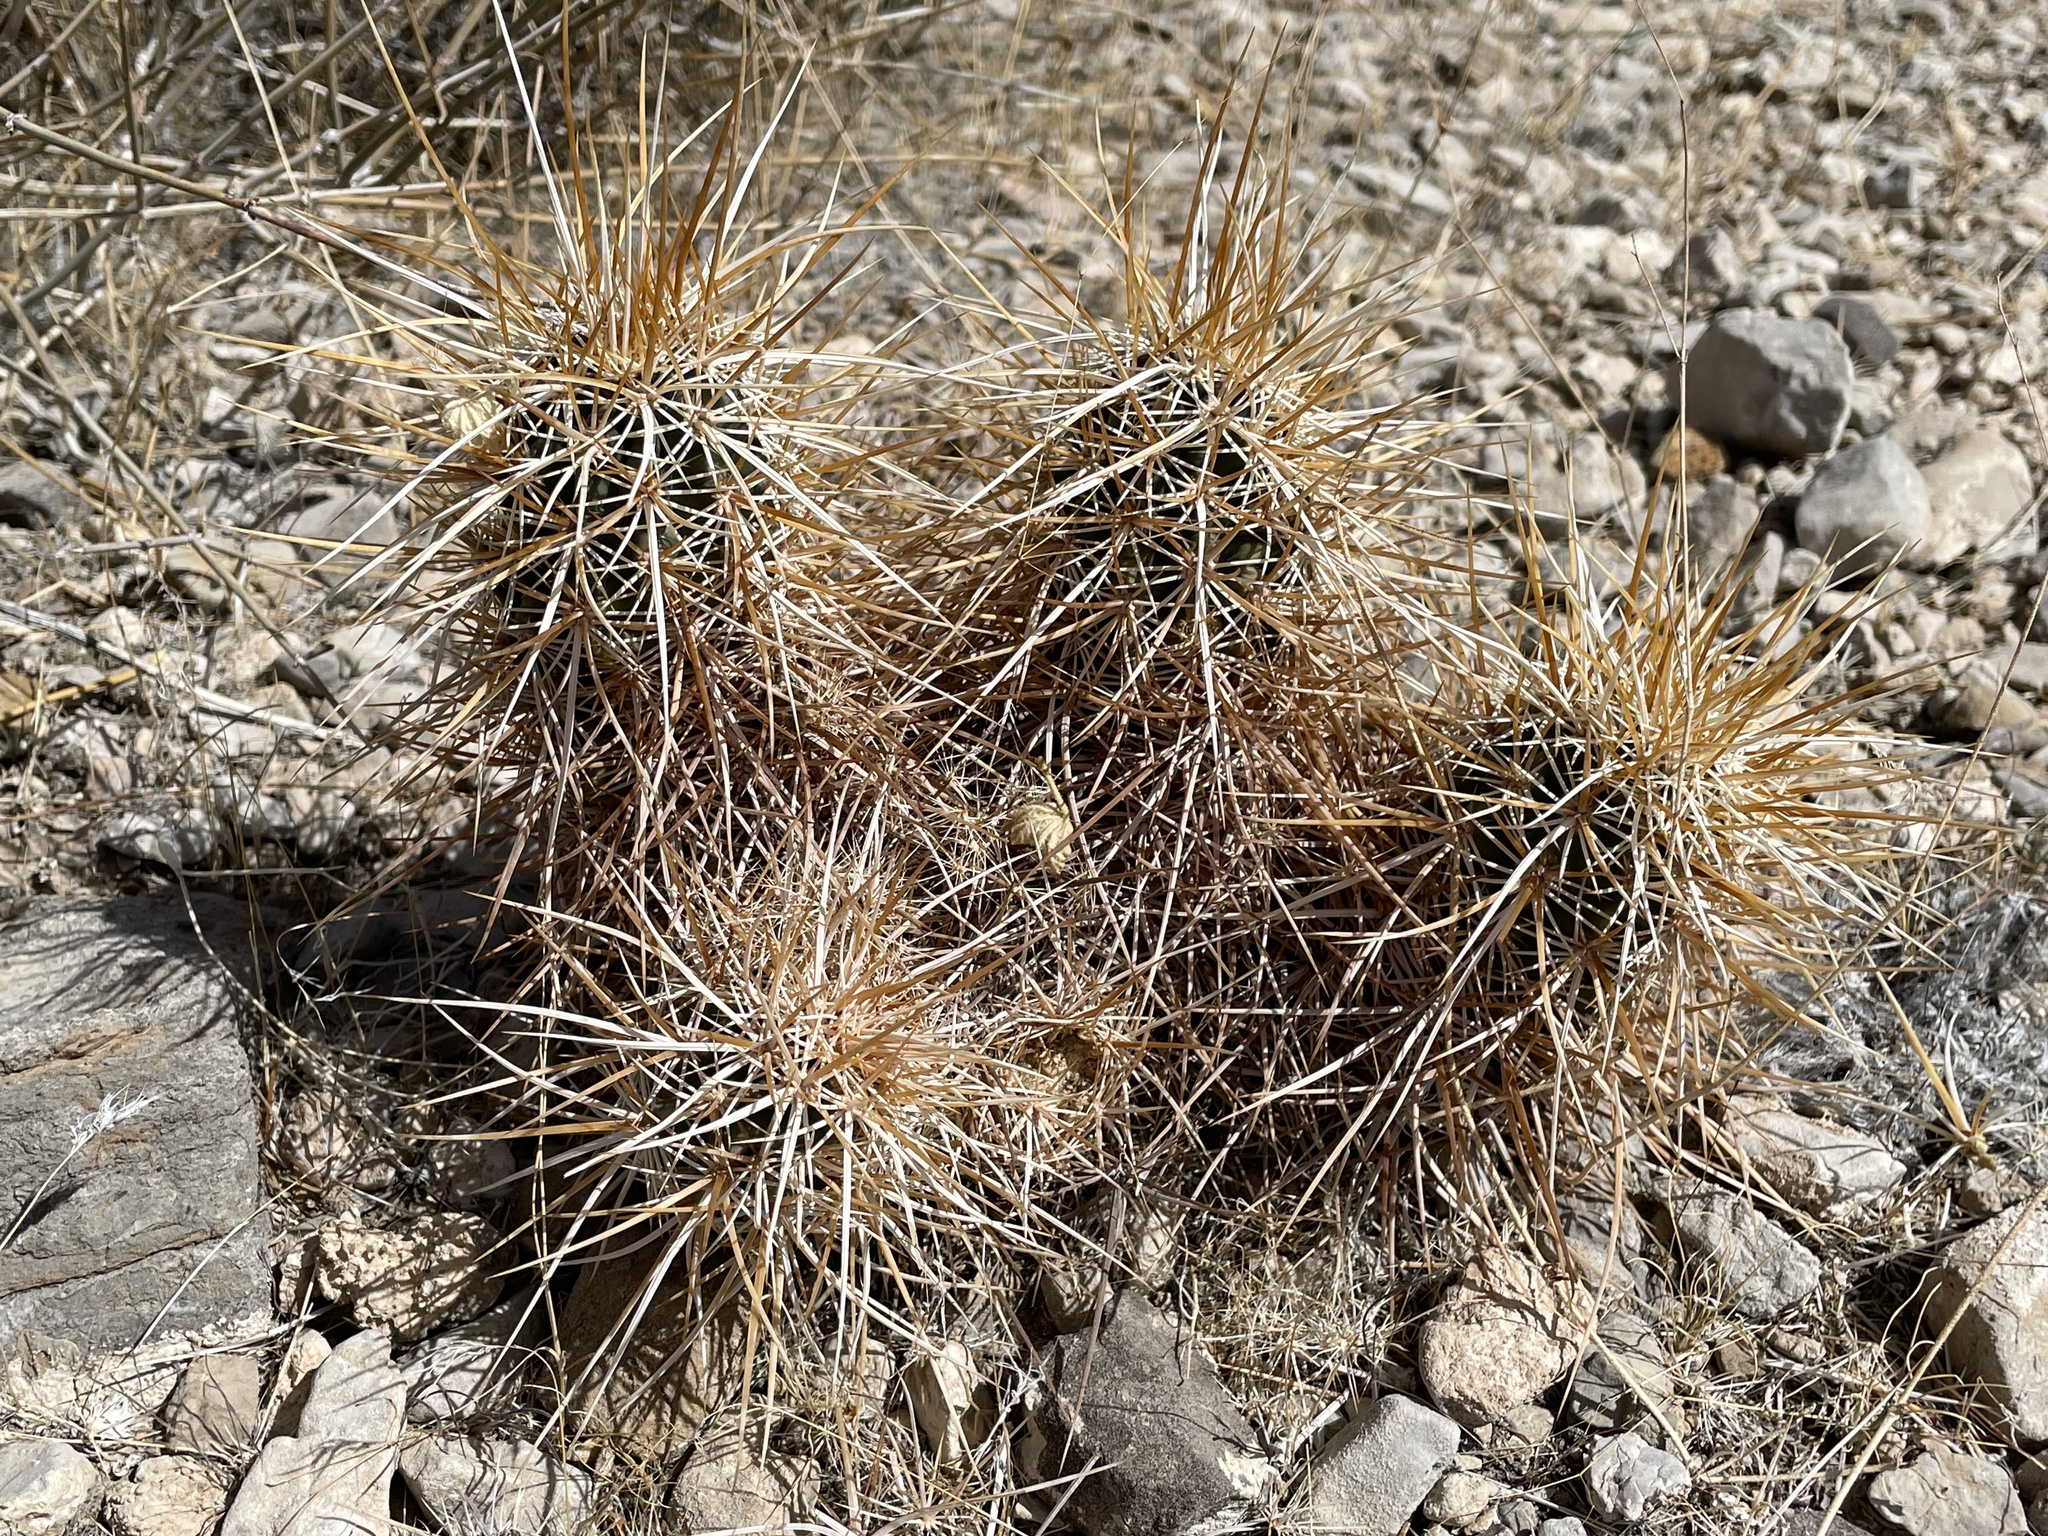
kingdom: Plantae
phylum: Tracheophyta
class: Magnoliopsida
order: Caryophyllales
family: Cactaceae
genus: Echinocereus
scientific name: Echinocereus engelmannii
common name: Engelmann's hedgehog cactus
